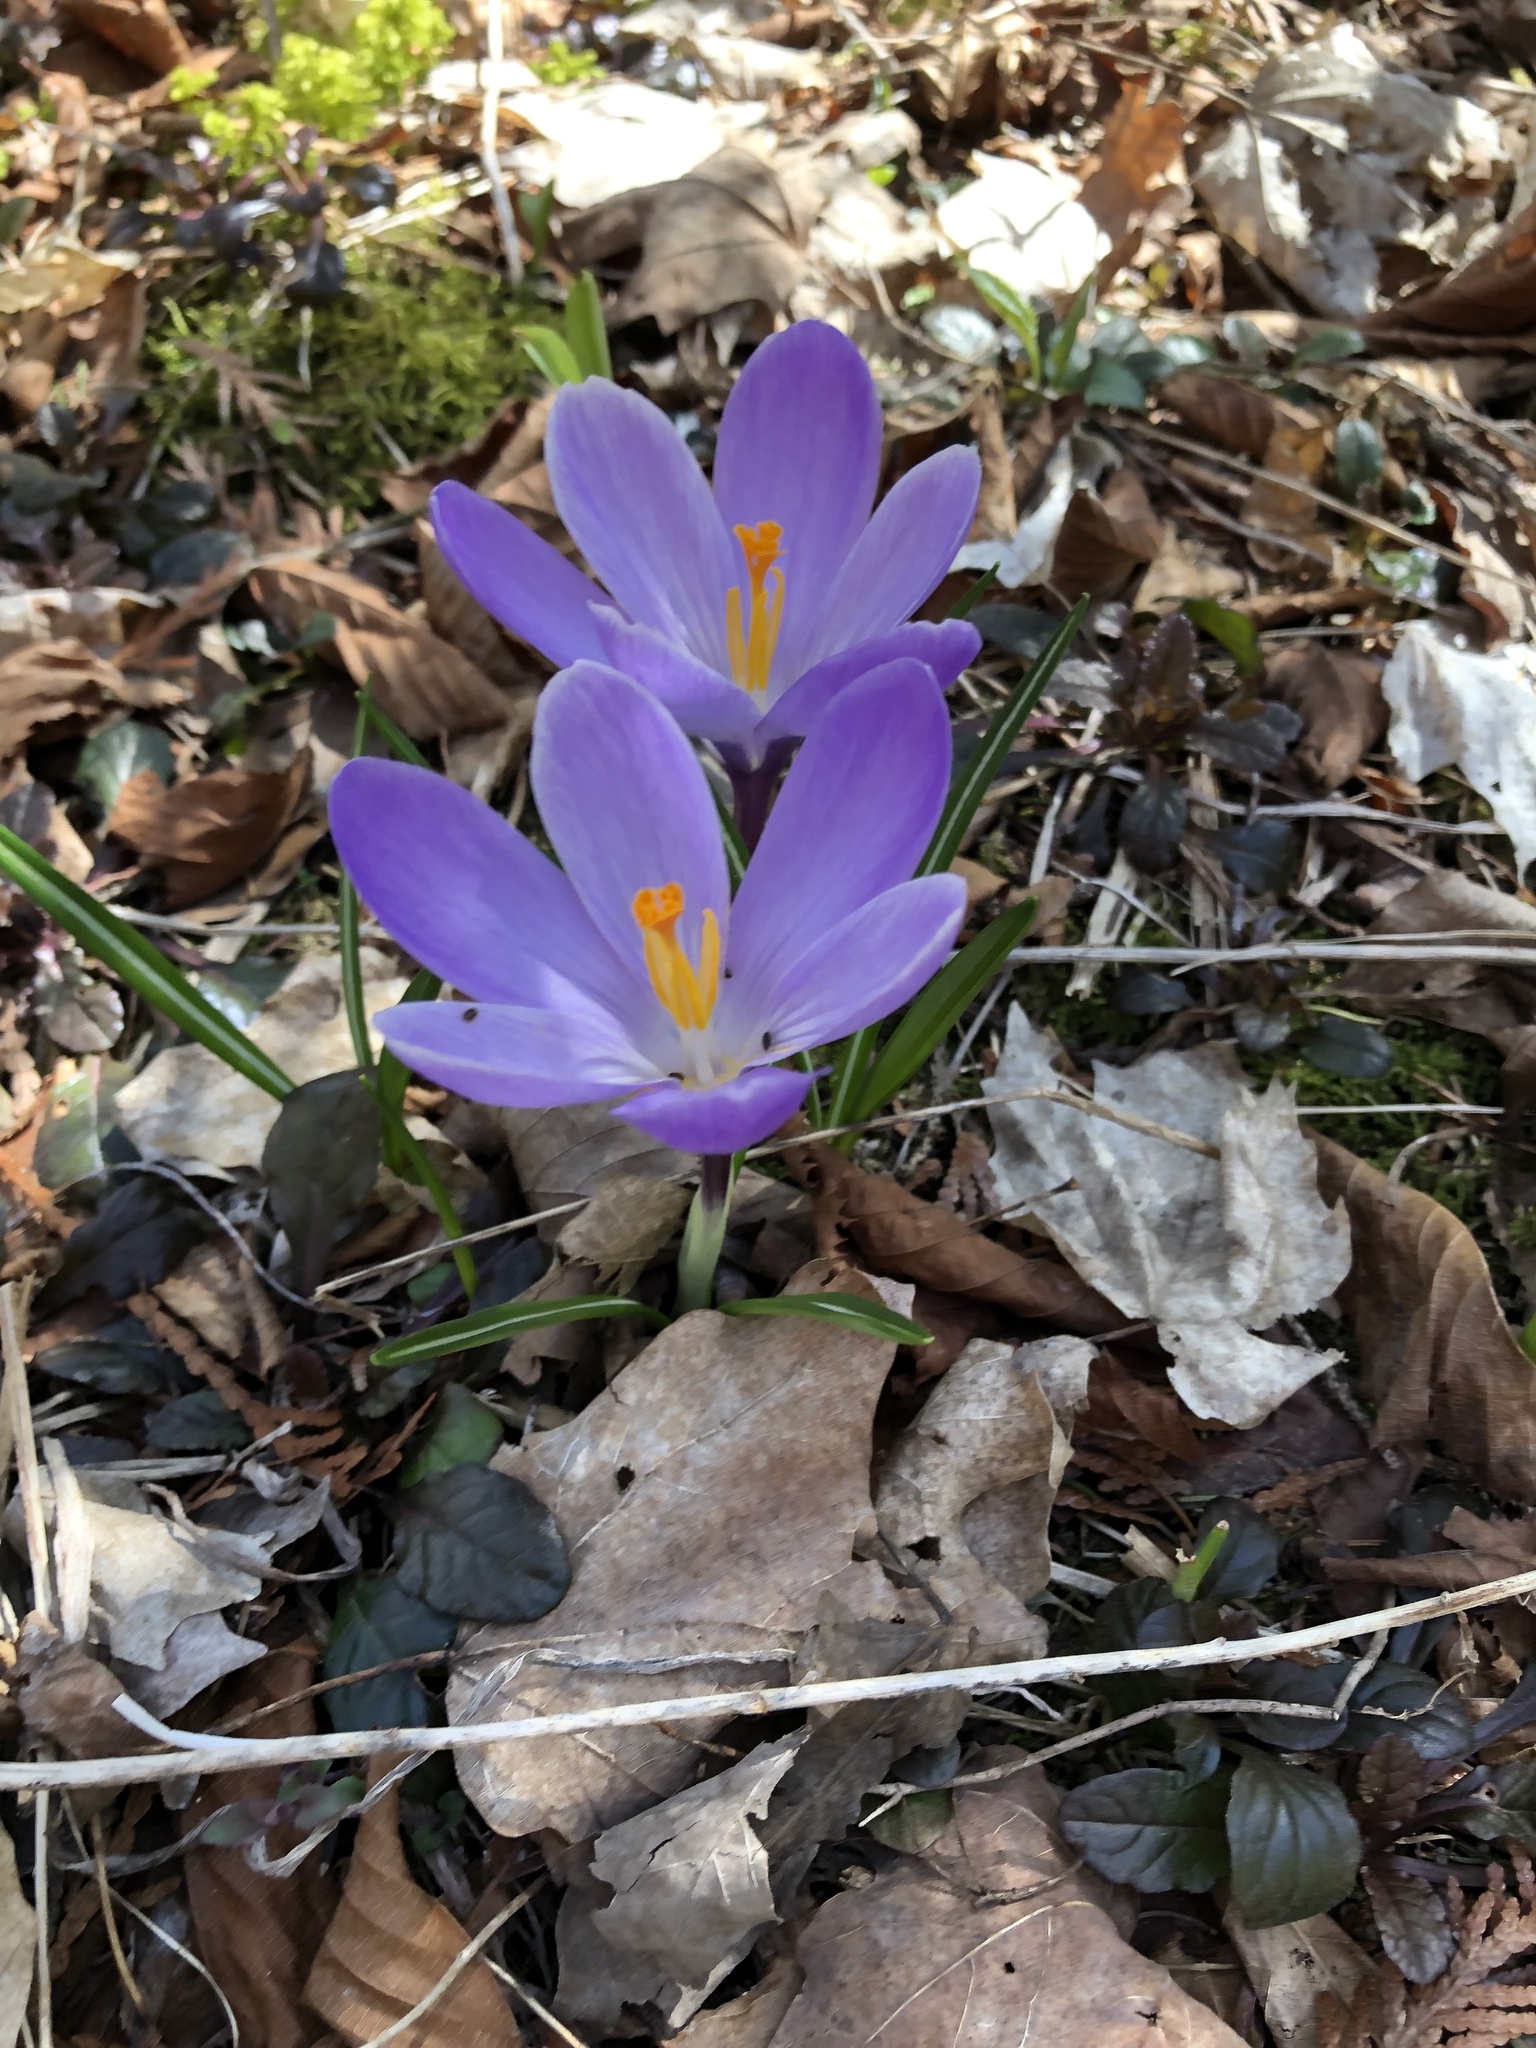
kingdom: Plantae
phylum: Tracheophyta
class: Liliopsida
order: Asparagales
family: Iridaceae
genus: Crocus
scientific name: Crocus tommasinianus
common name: Early crocus
